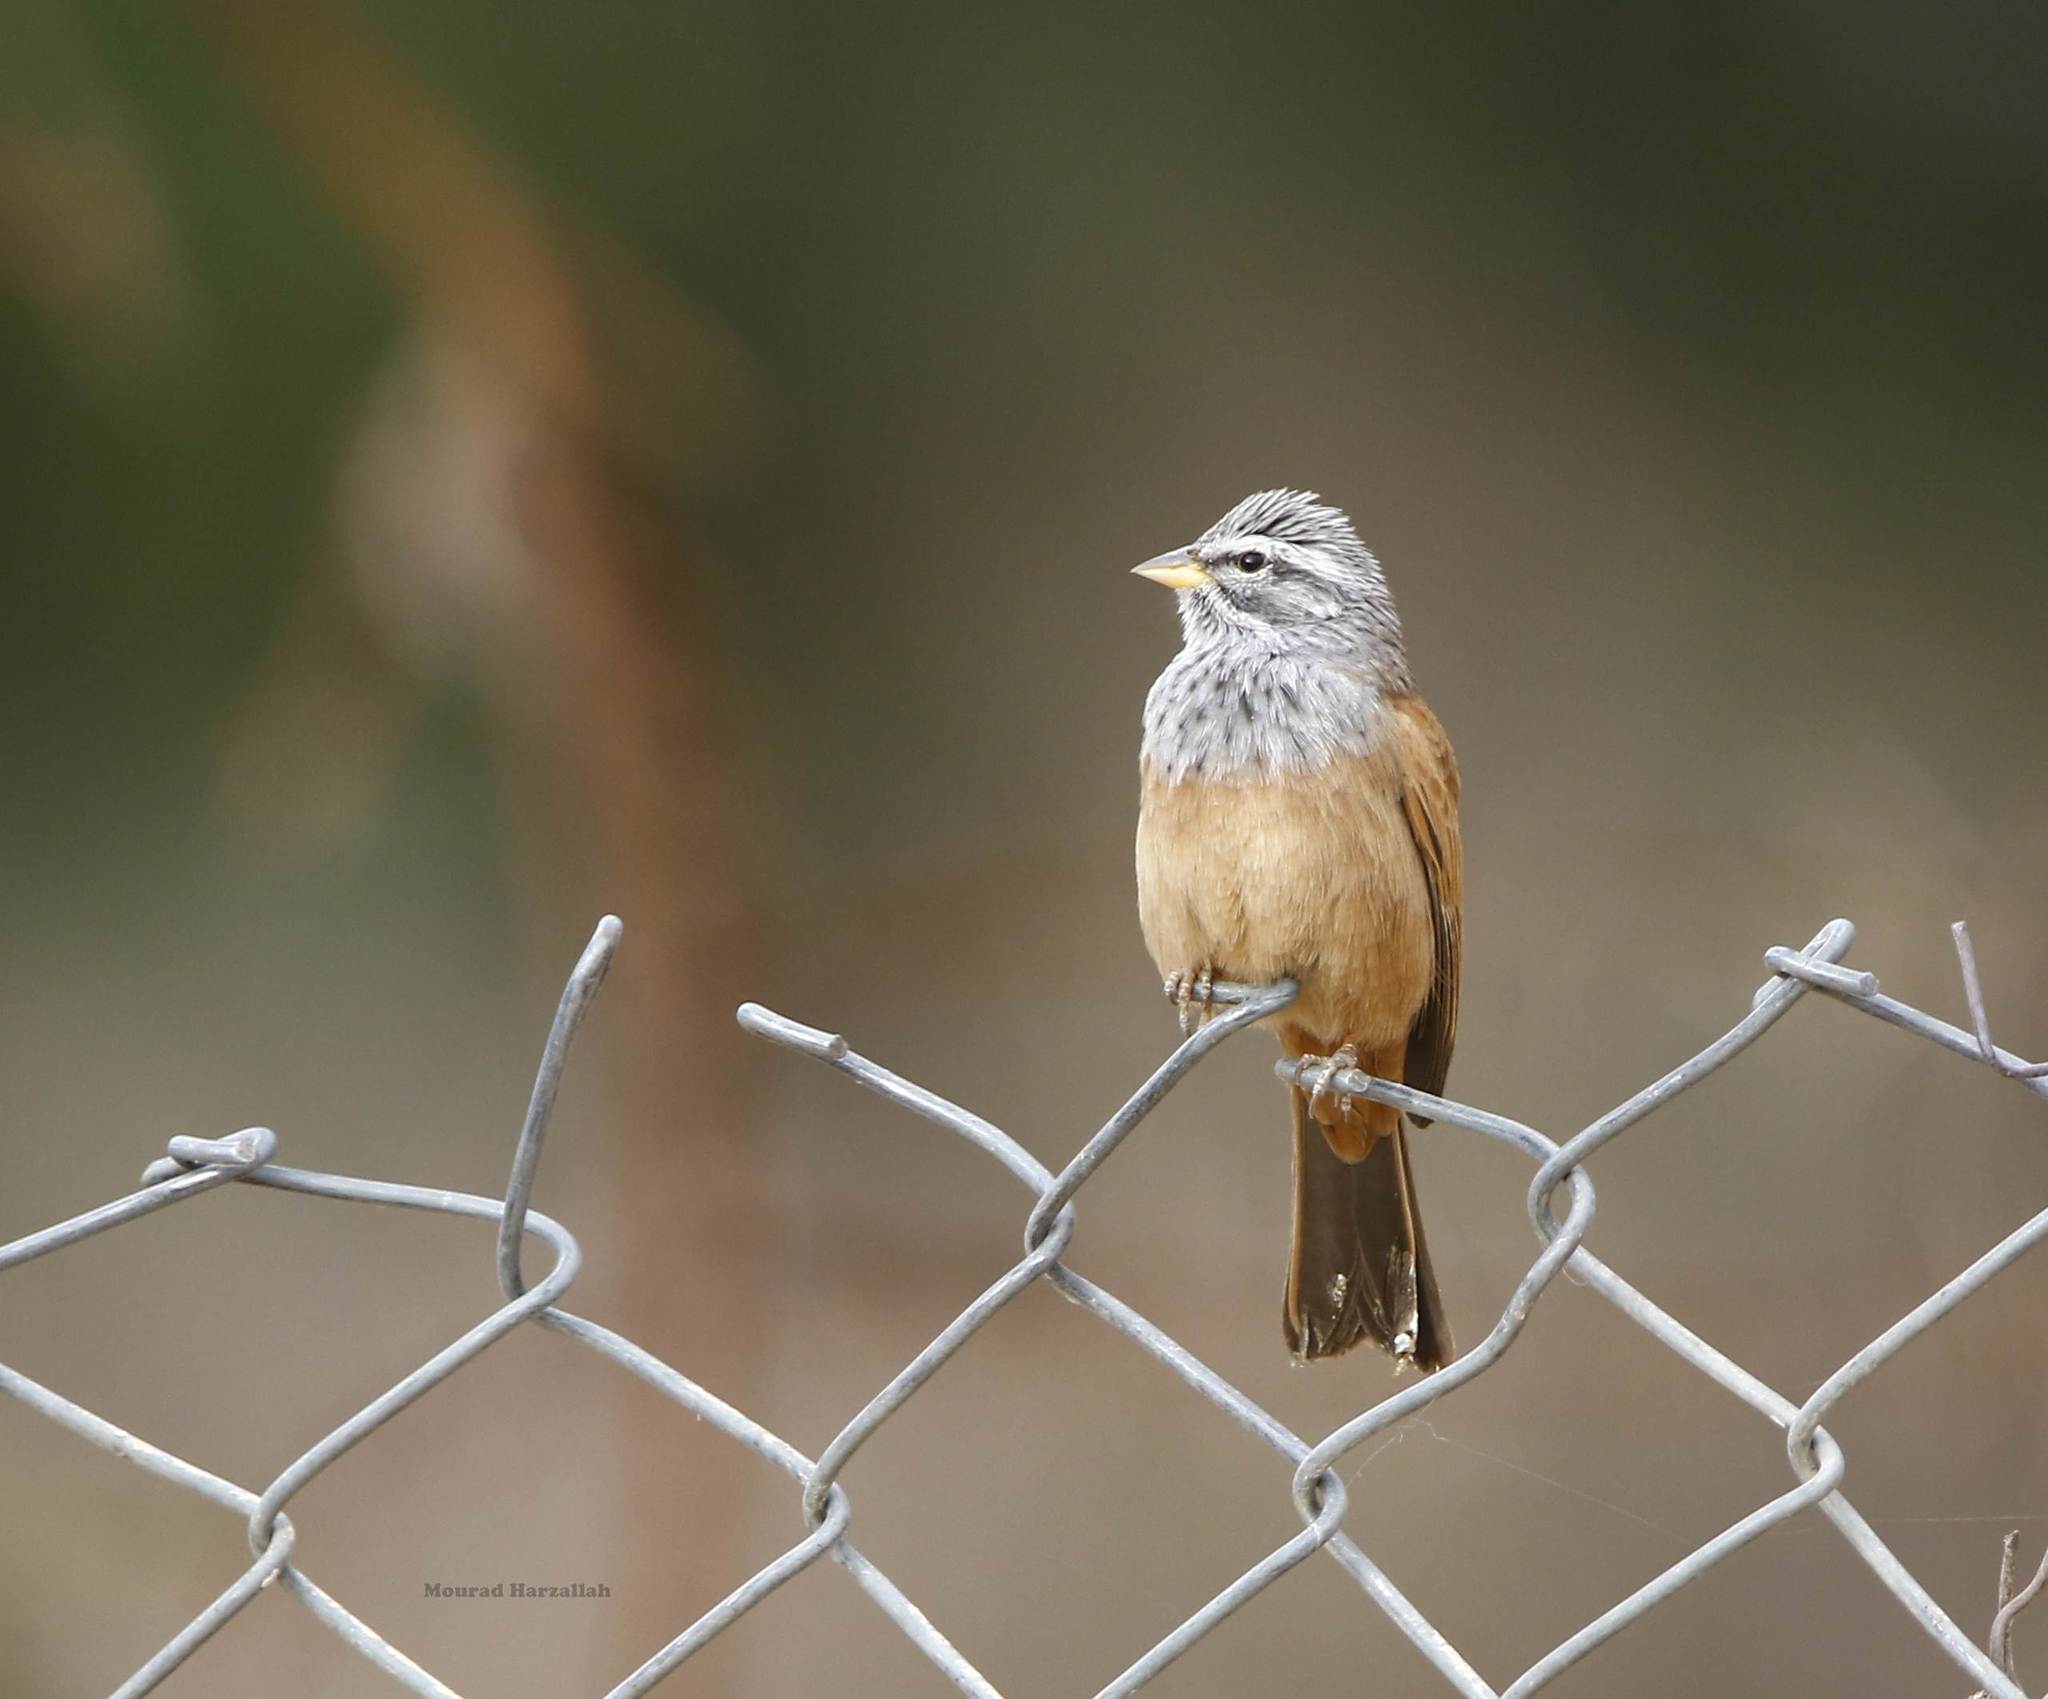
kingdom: Animalia
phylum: Chordata
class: Aves
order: Passeriformes
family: Emberizidae
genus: Emberiza
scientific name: Emberiza sahari
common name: House bunting
